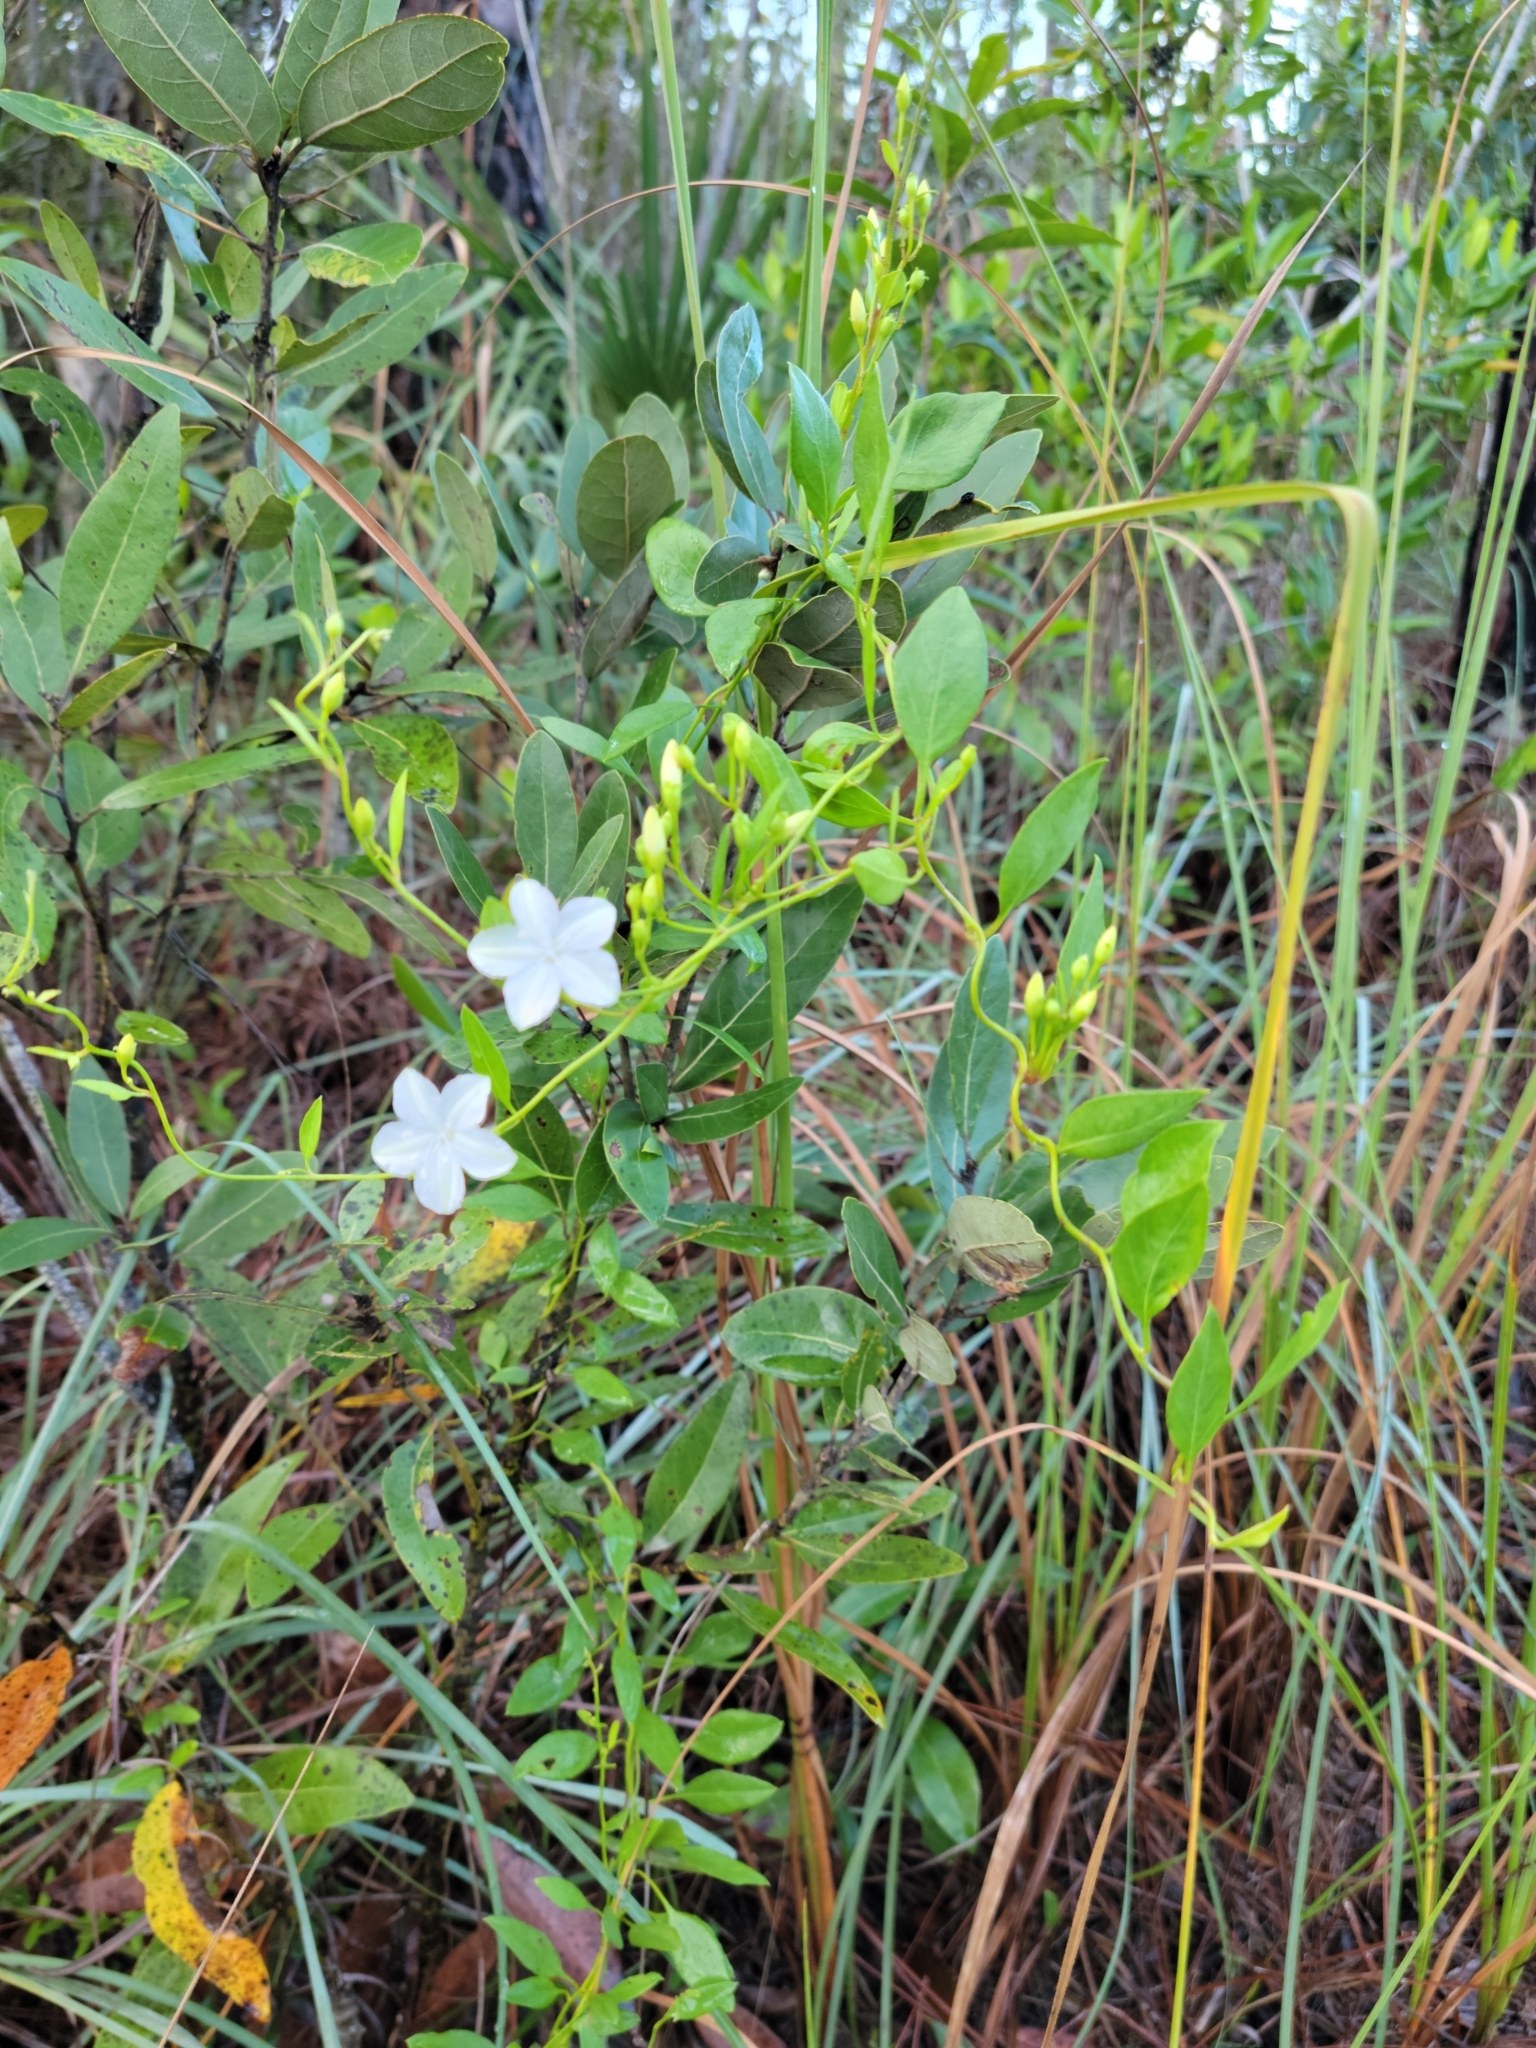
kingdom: Plantae
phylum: Tracheophyta
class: Magnoliopsida
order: Solanales
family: Convolvulaceae
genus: Jacquemontia
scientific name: Jacquemontia curtissii
